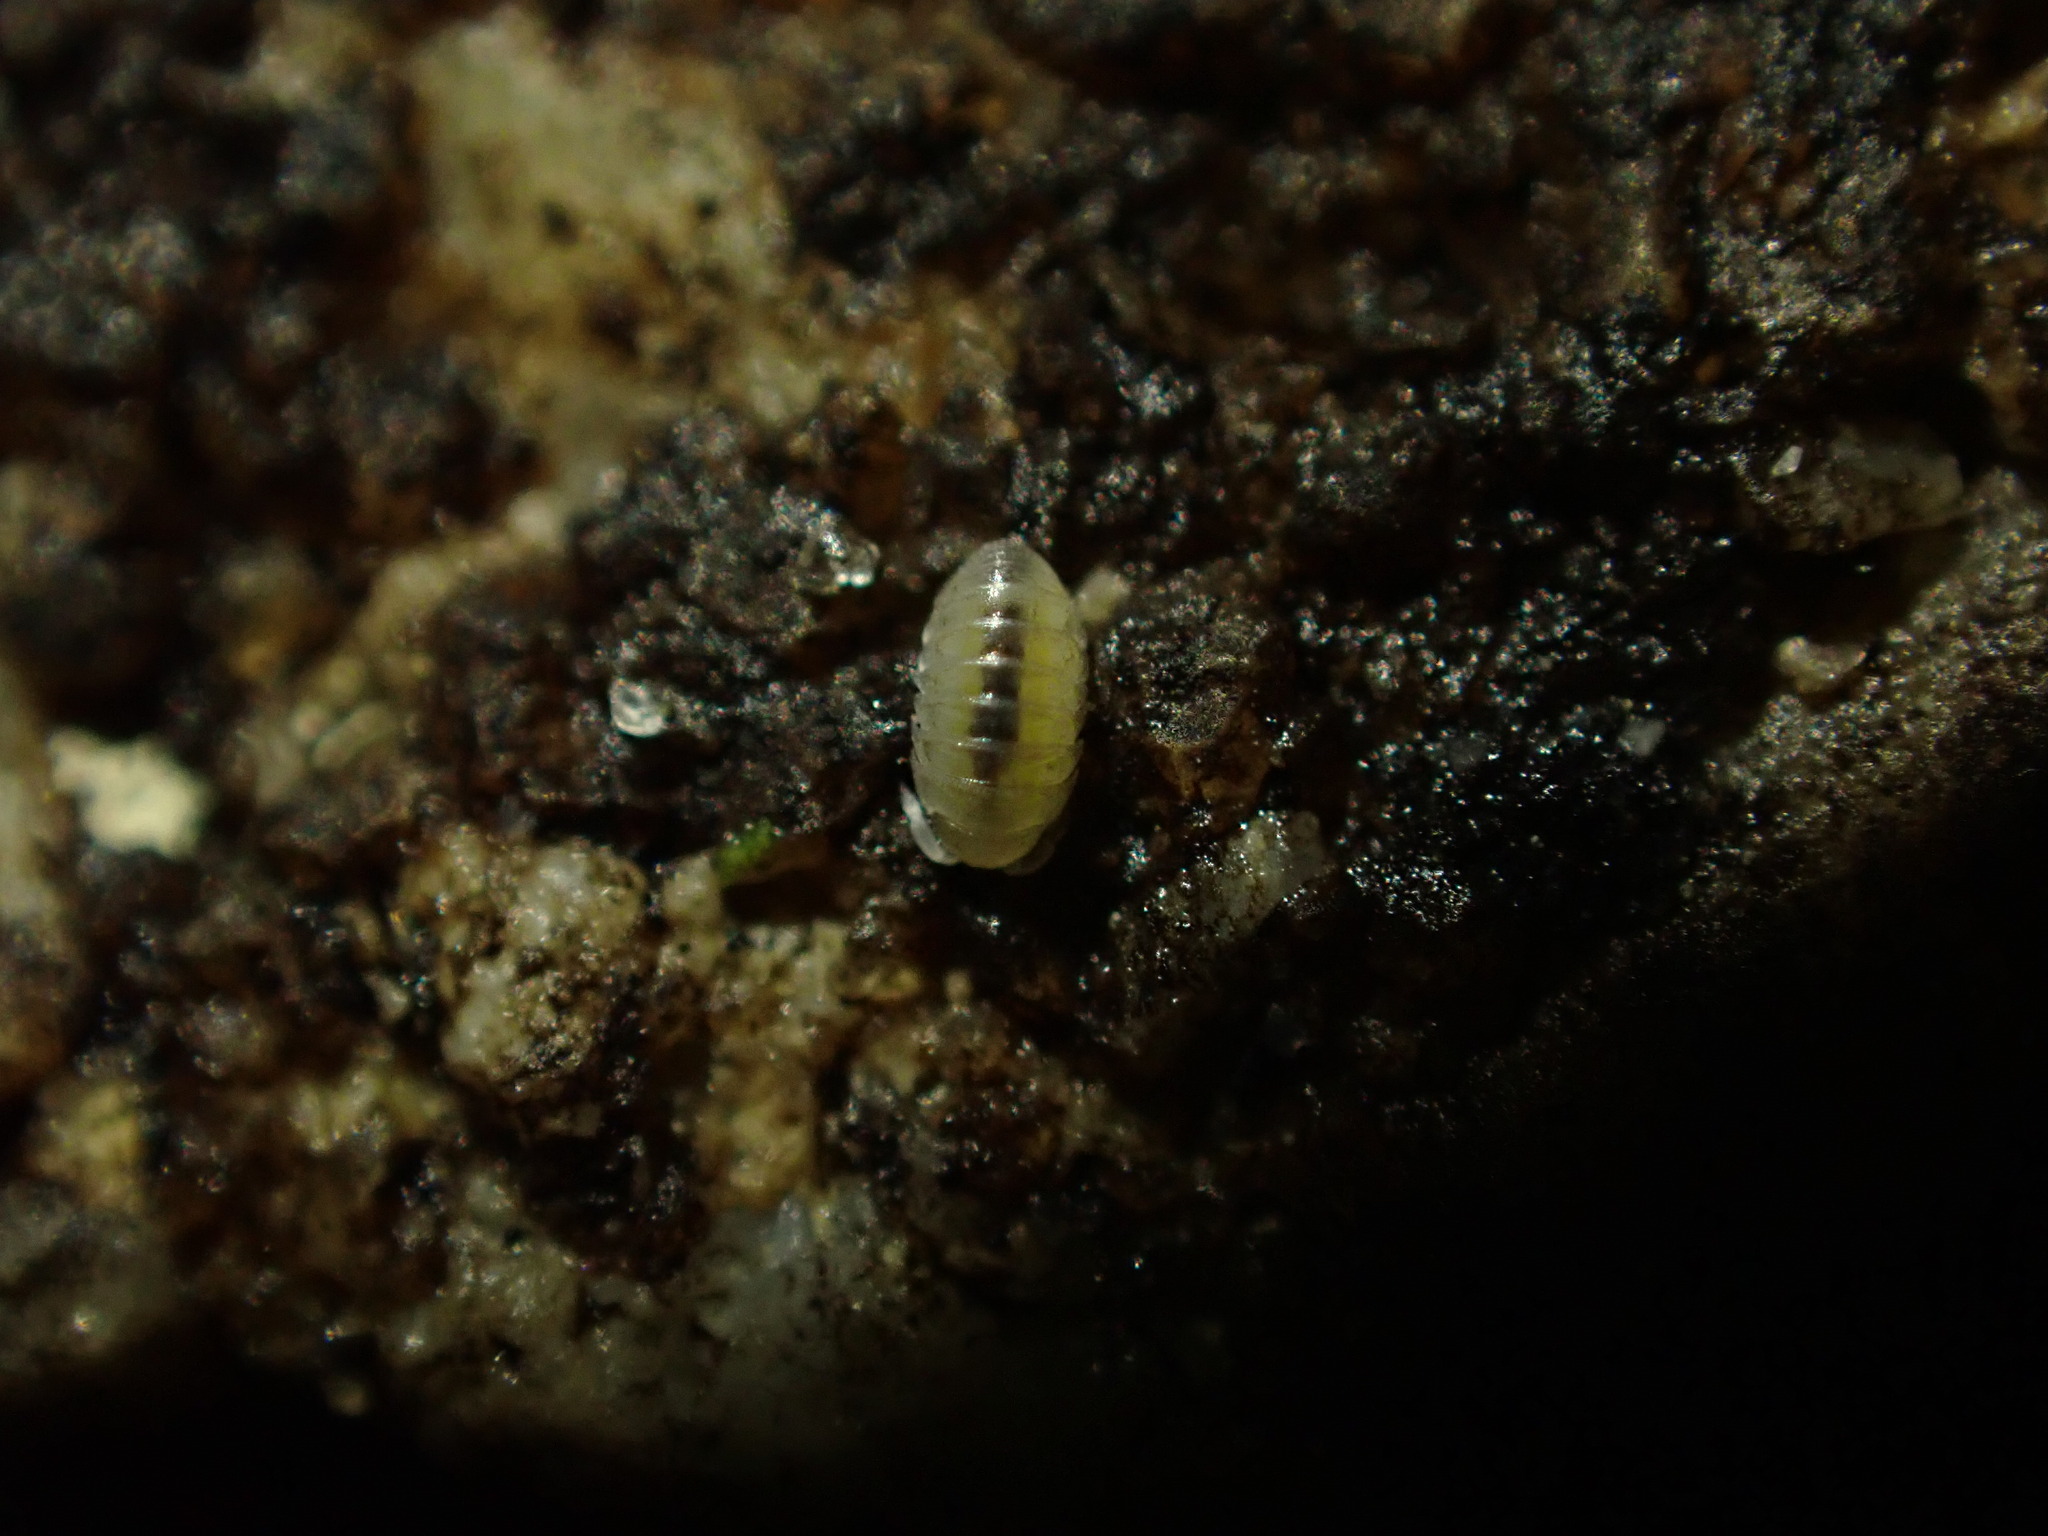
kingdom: Animalia
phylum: Arthropoda
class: Malacostraca
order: Isopoda
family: Armadillidiidae
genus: Armadillidium
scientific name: Armadillidium vulgare
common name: Common pill woodlouse
